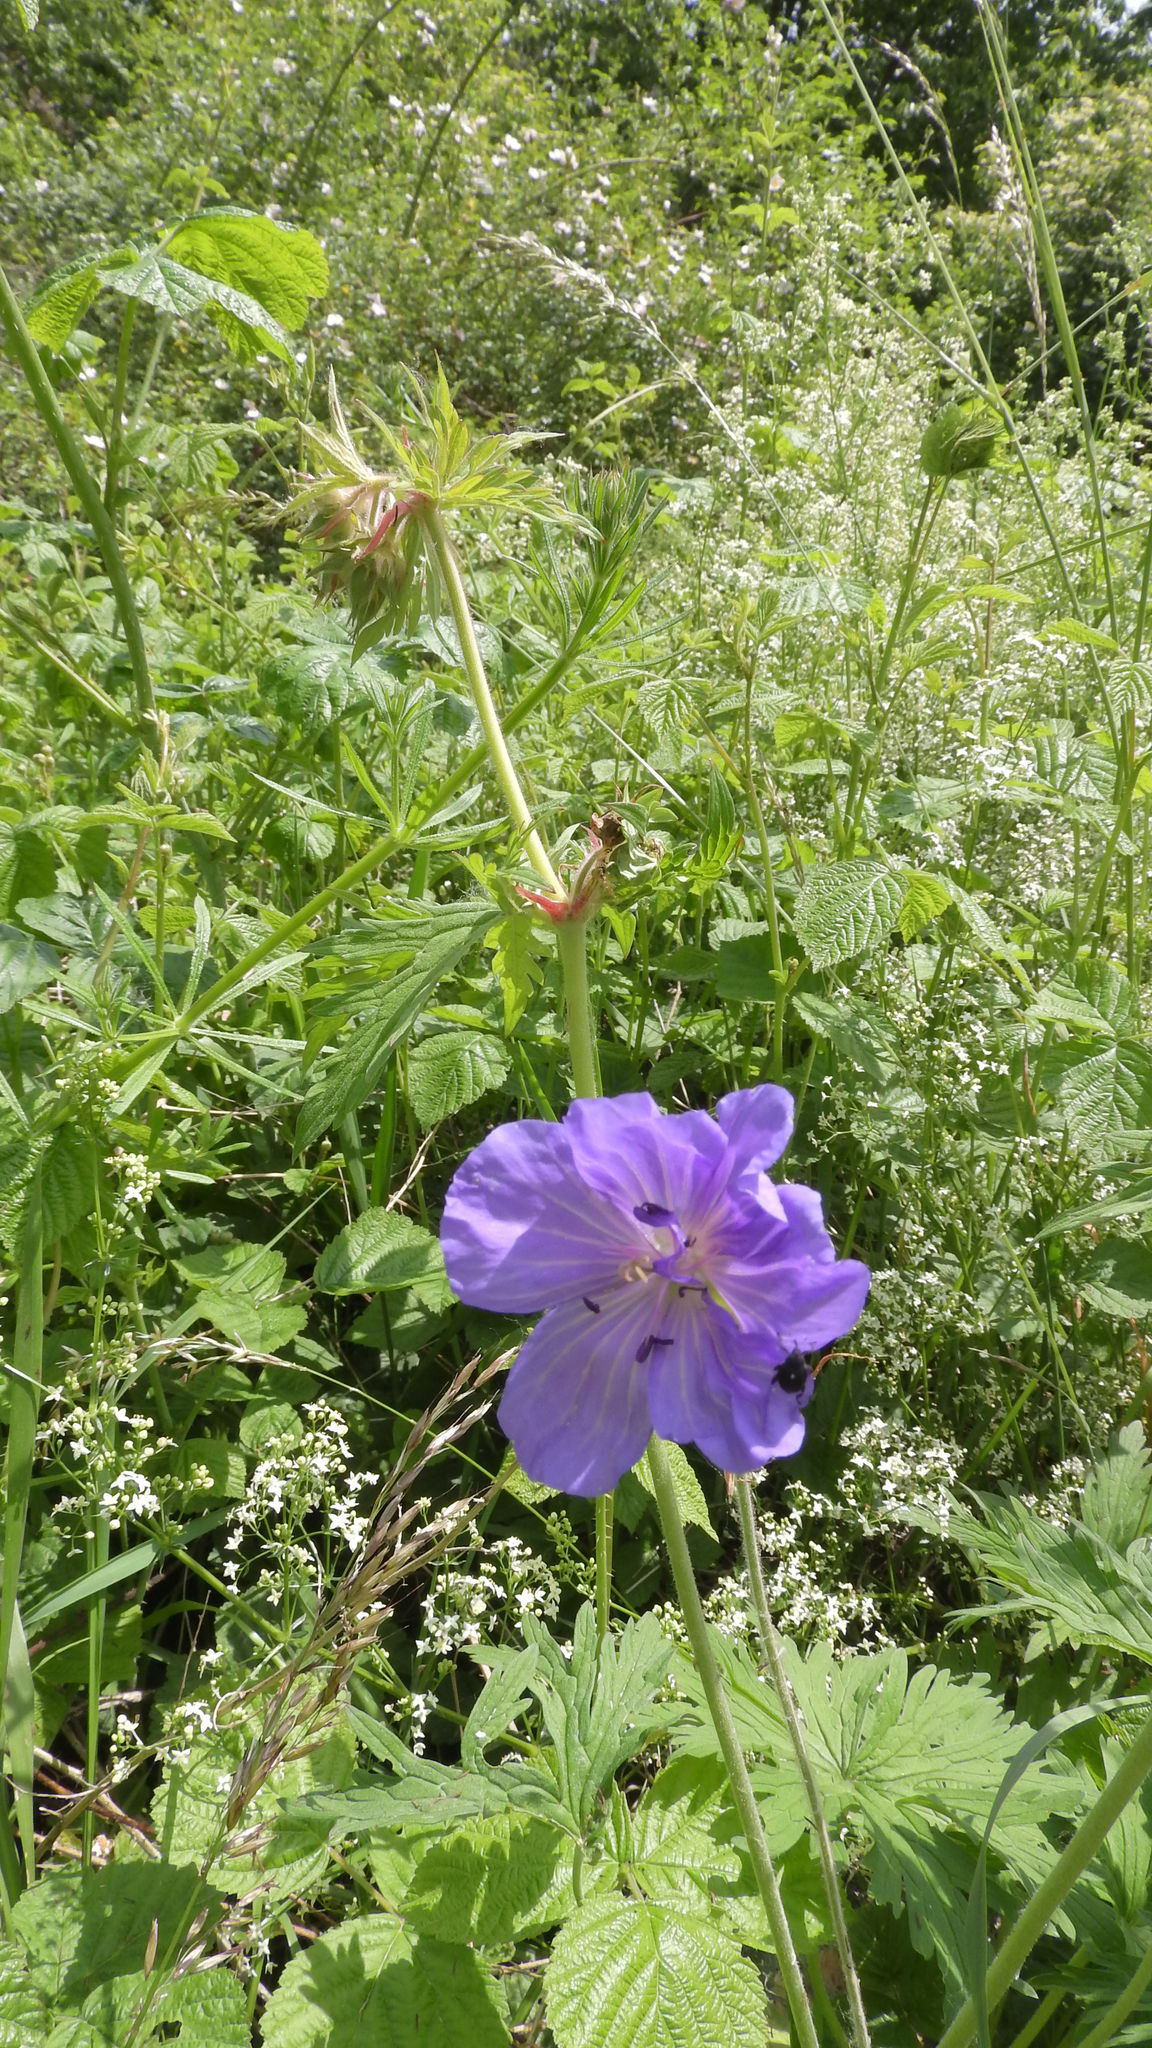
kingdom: Plantae
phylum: Tracheophyta
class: Magnoliopsida
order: Geraniales
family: Geraniaceae
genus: Geranium
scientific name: Geranium pratense
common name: Meadow crane's-bill
